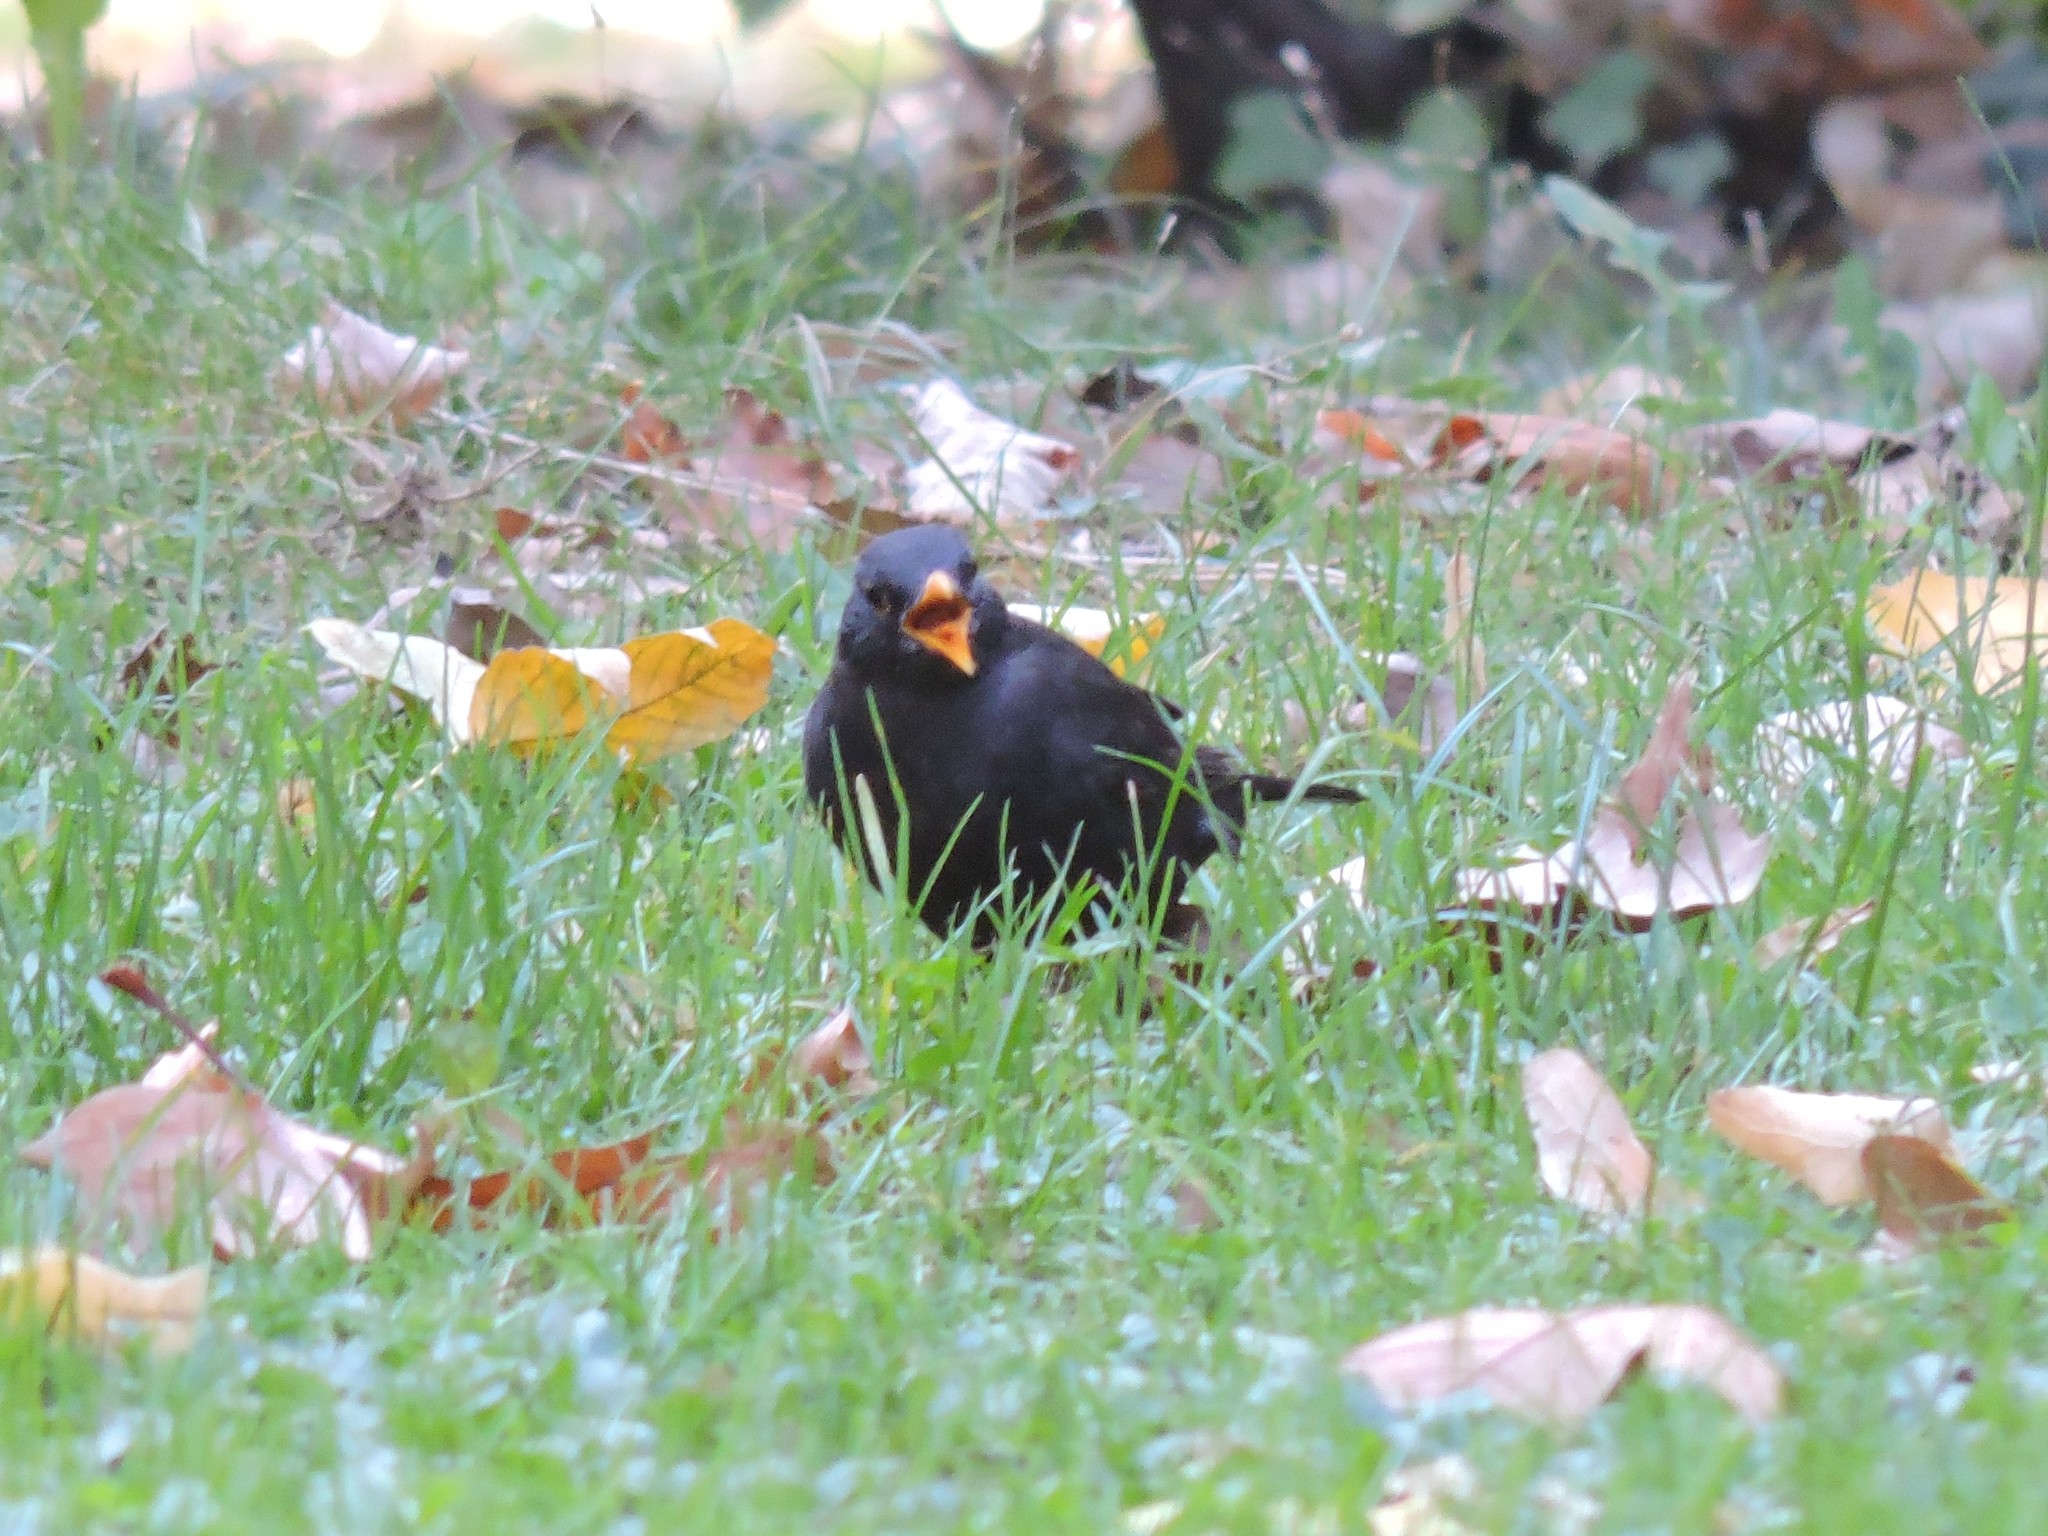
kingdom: Animalia
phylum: Chordata
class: Aves
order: Passeriformes
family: Turdidae
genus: Turdus
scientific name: Turdus merula
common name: Common blackbird
